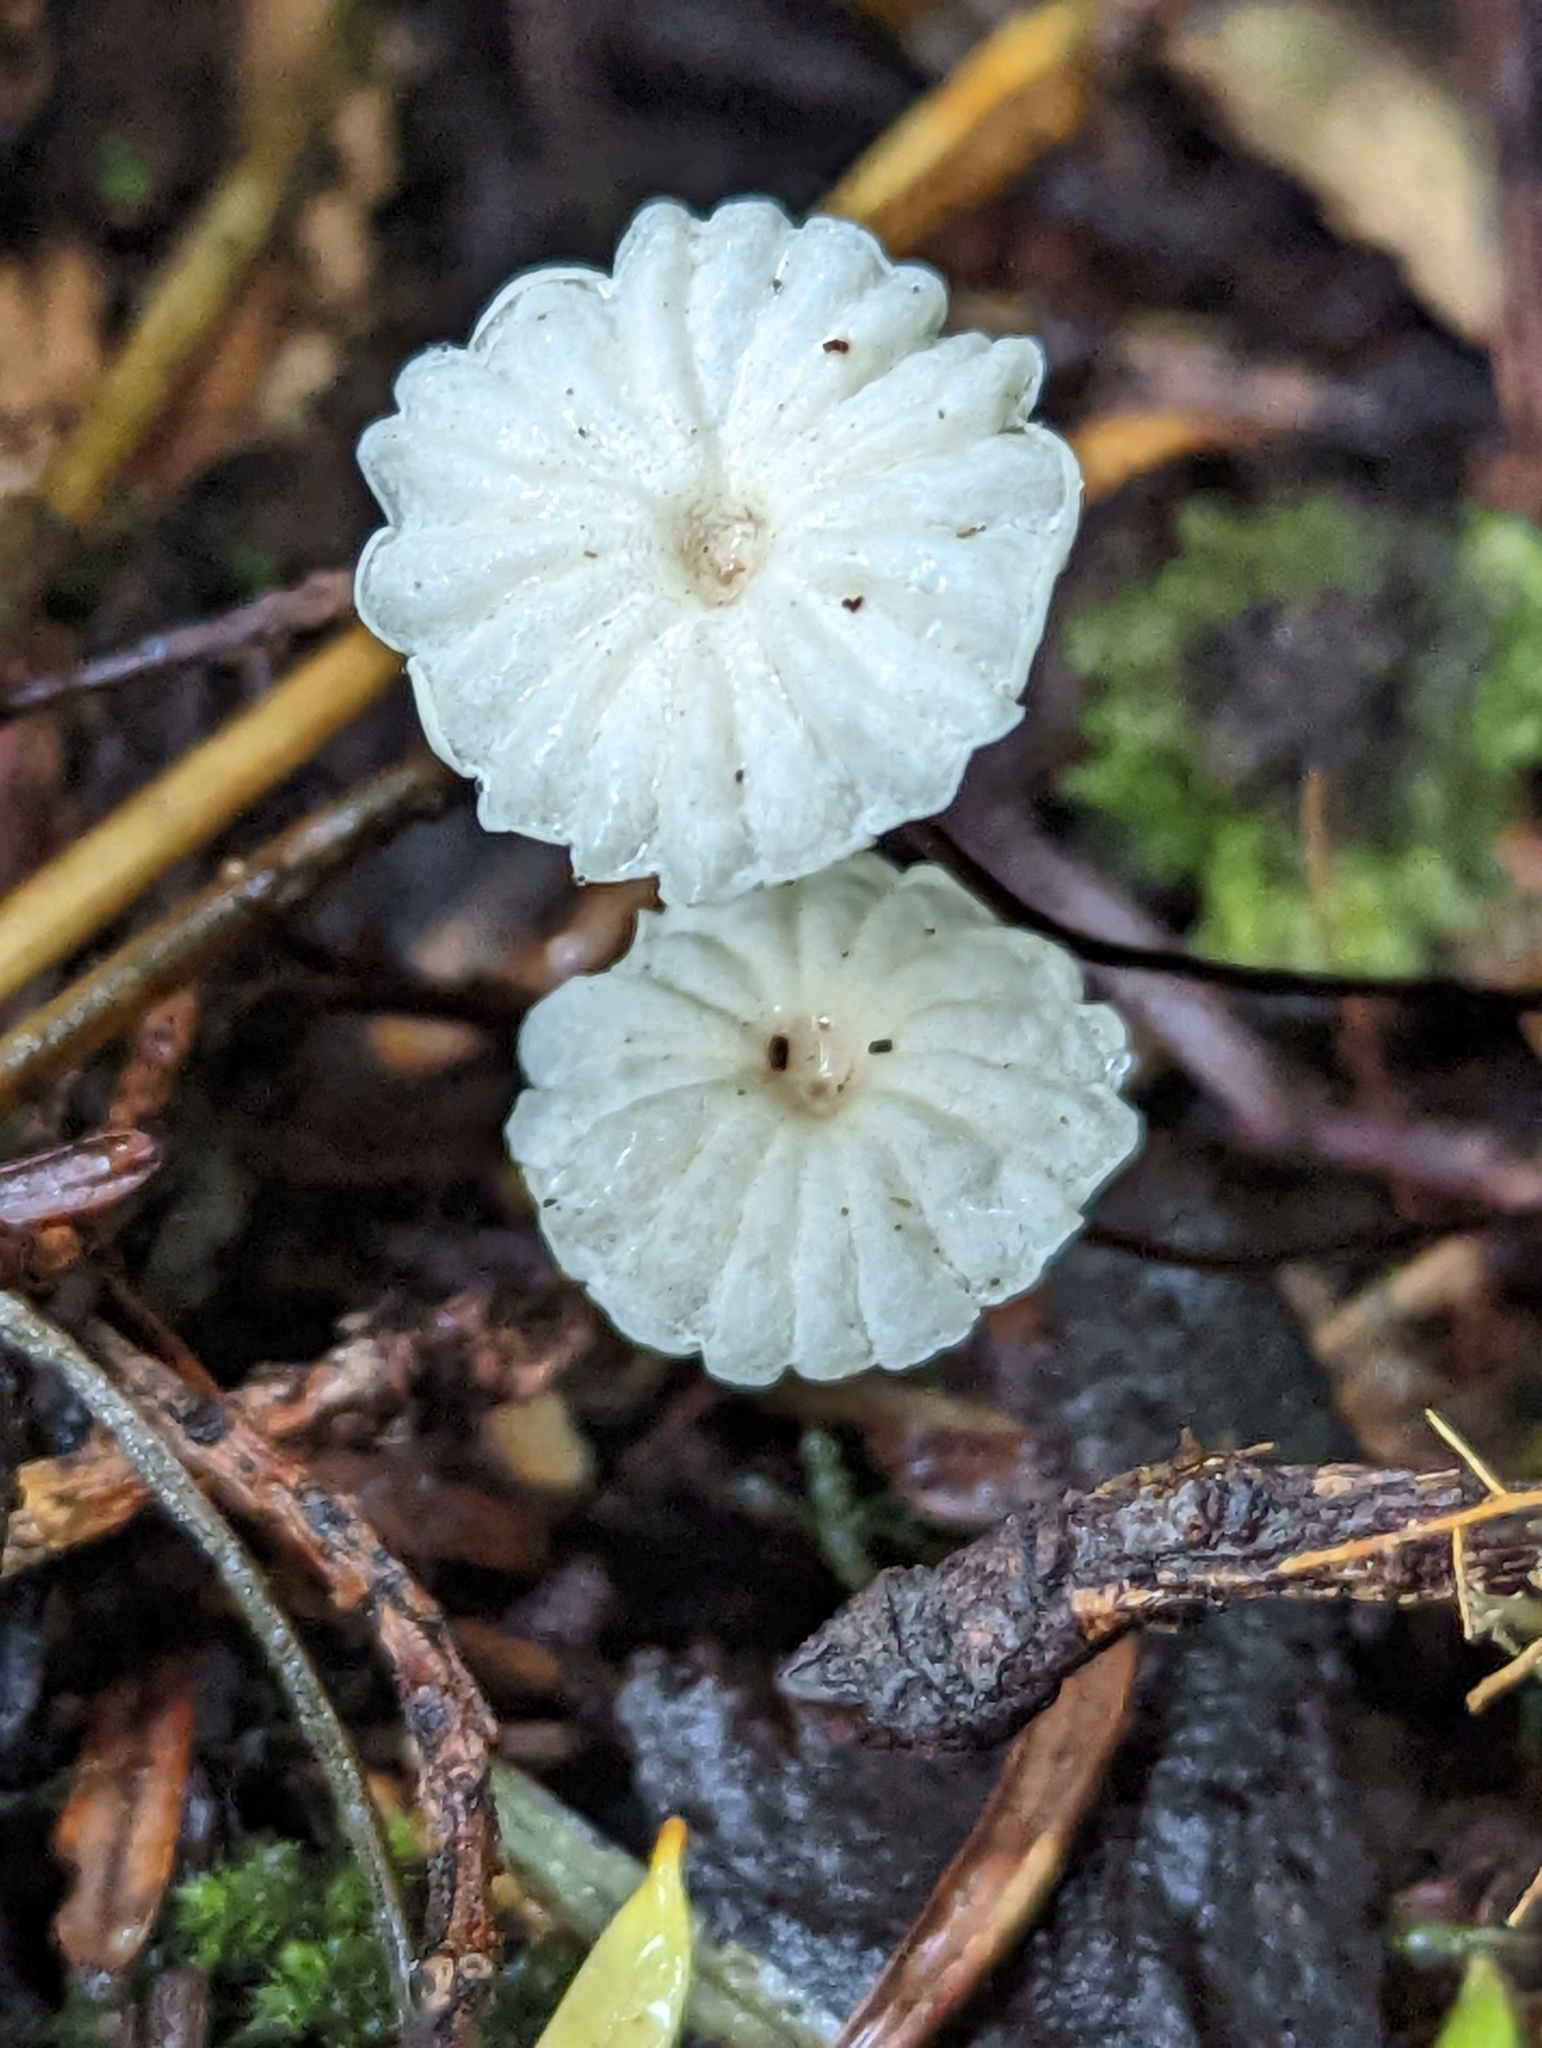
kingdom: Fungi
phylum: Basidiomycota
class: Agaricomycetes
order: Agaricales
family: Marasmiaceae
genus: Marasmius
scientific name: Marasmius rotula
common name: Collared parachute
